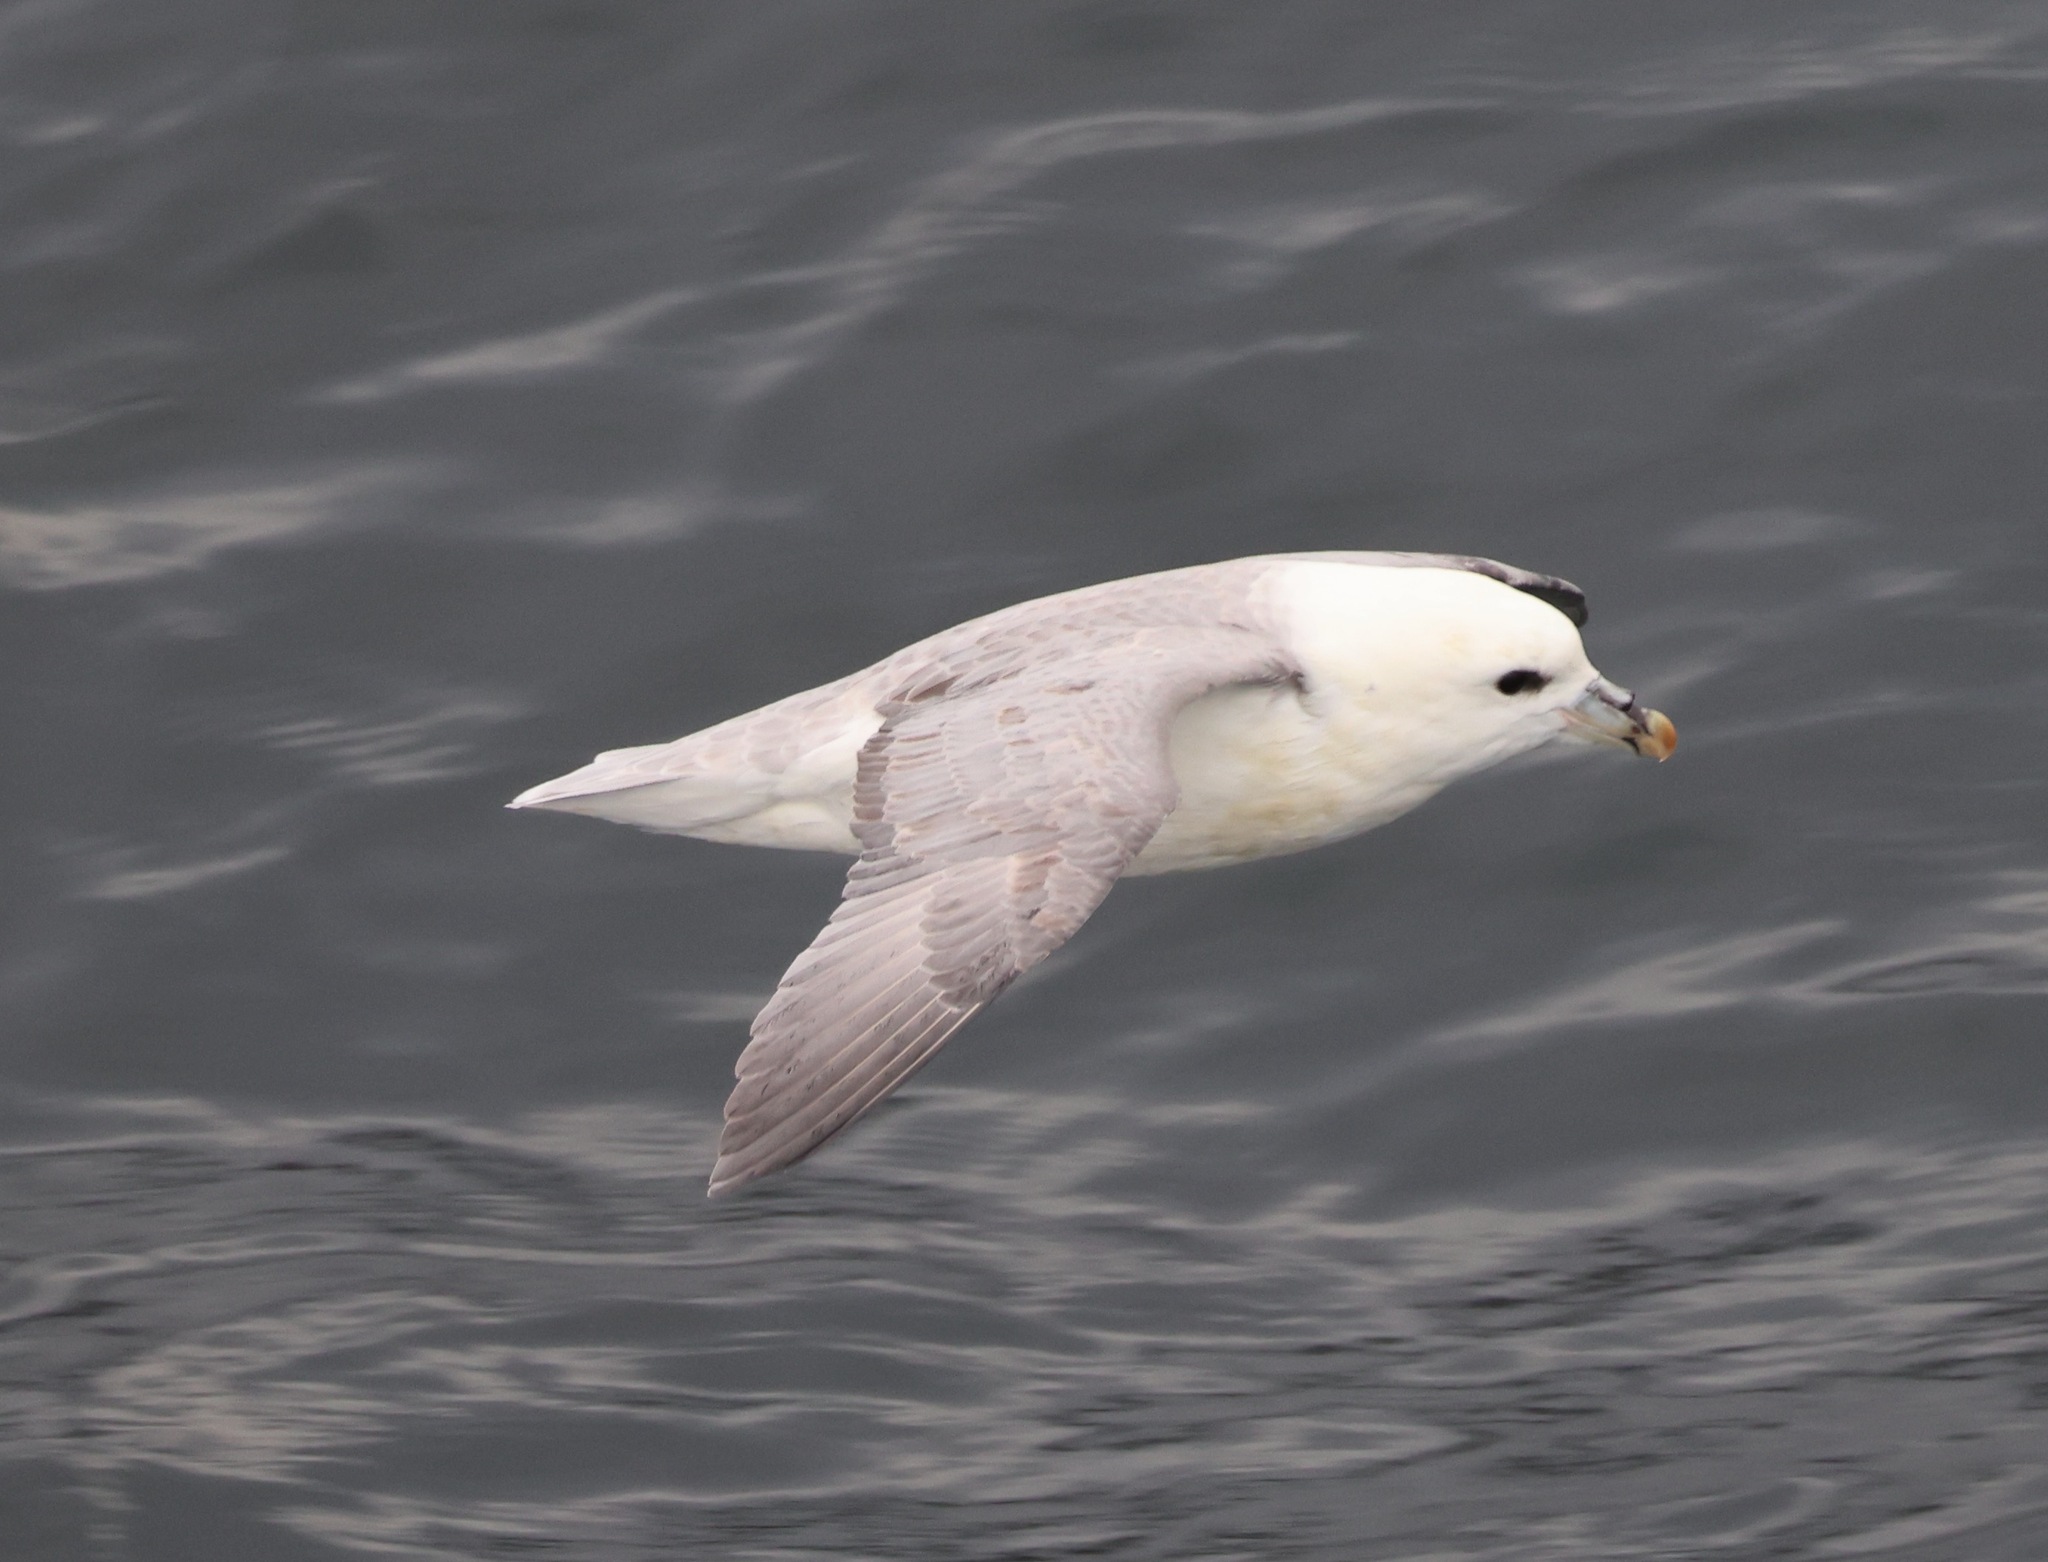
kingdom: Animalia
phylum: Chordata
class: Aves
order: Procellariiformes
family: Procellariidae
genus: Fulmarus
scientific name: Fulmarus glacialis
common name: Northern fulmar
